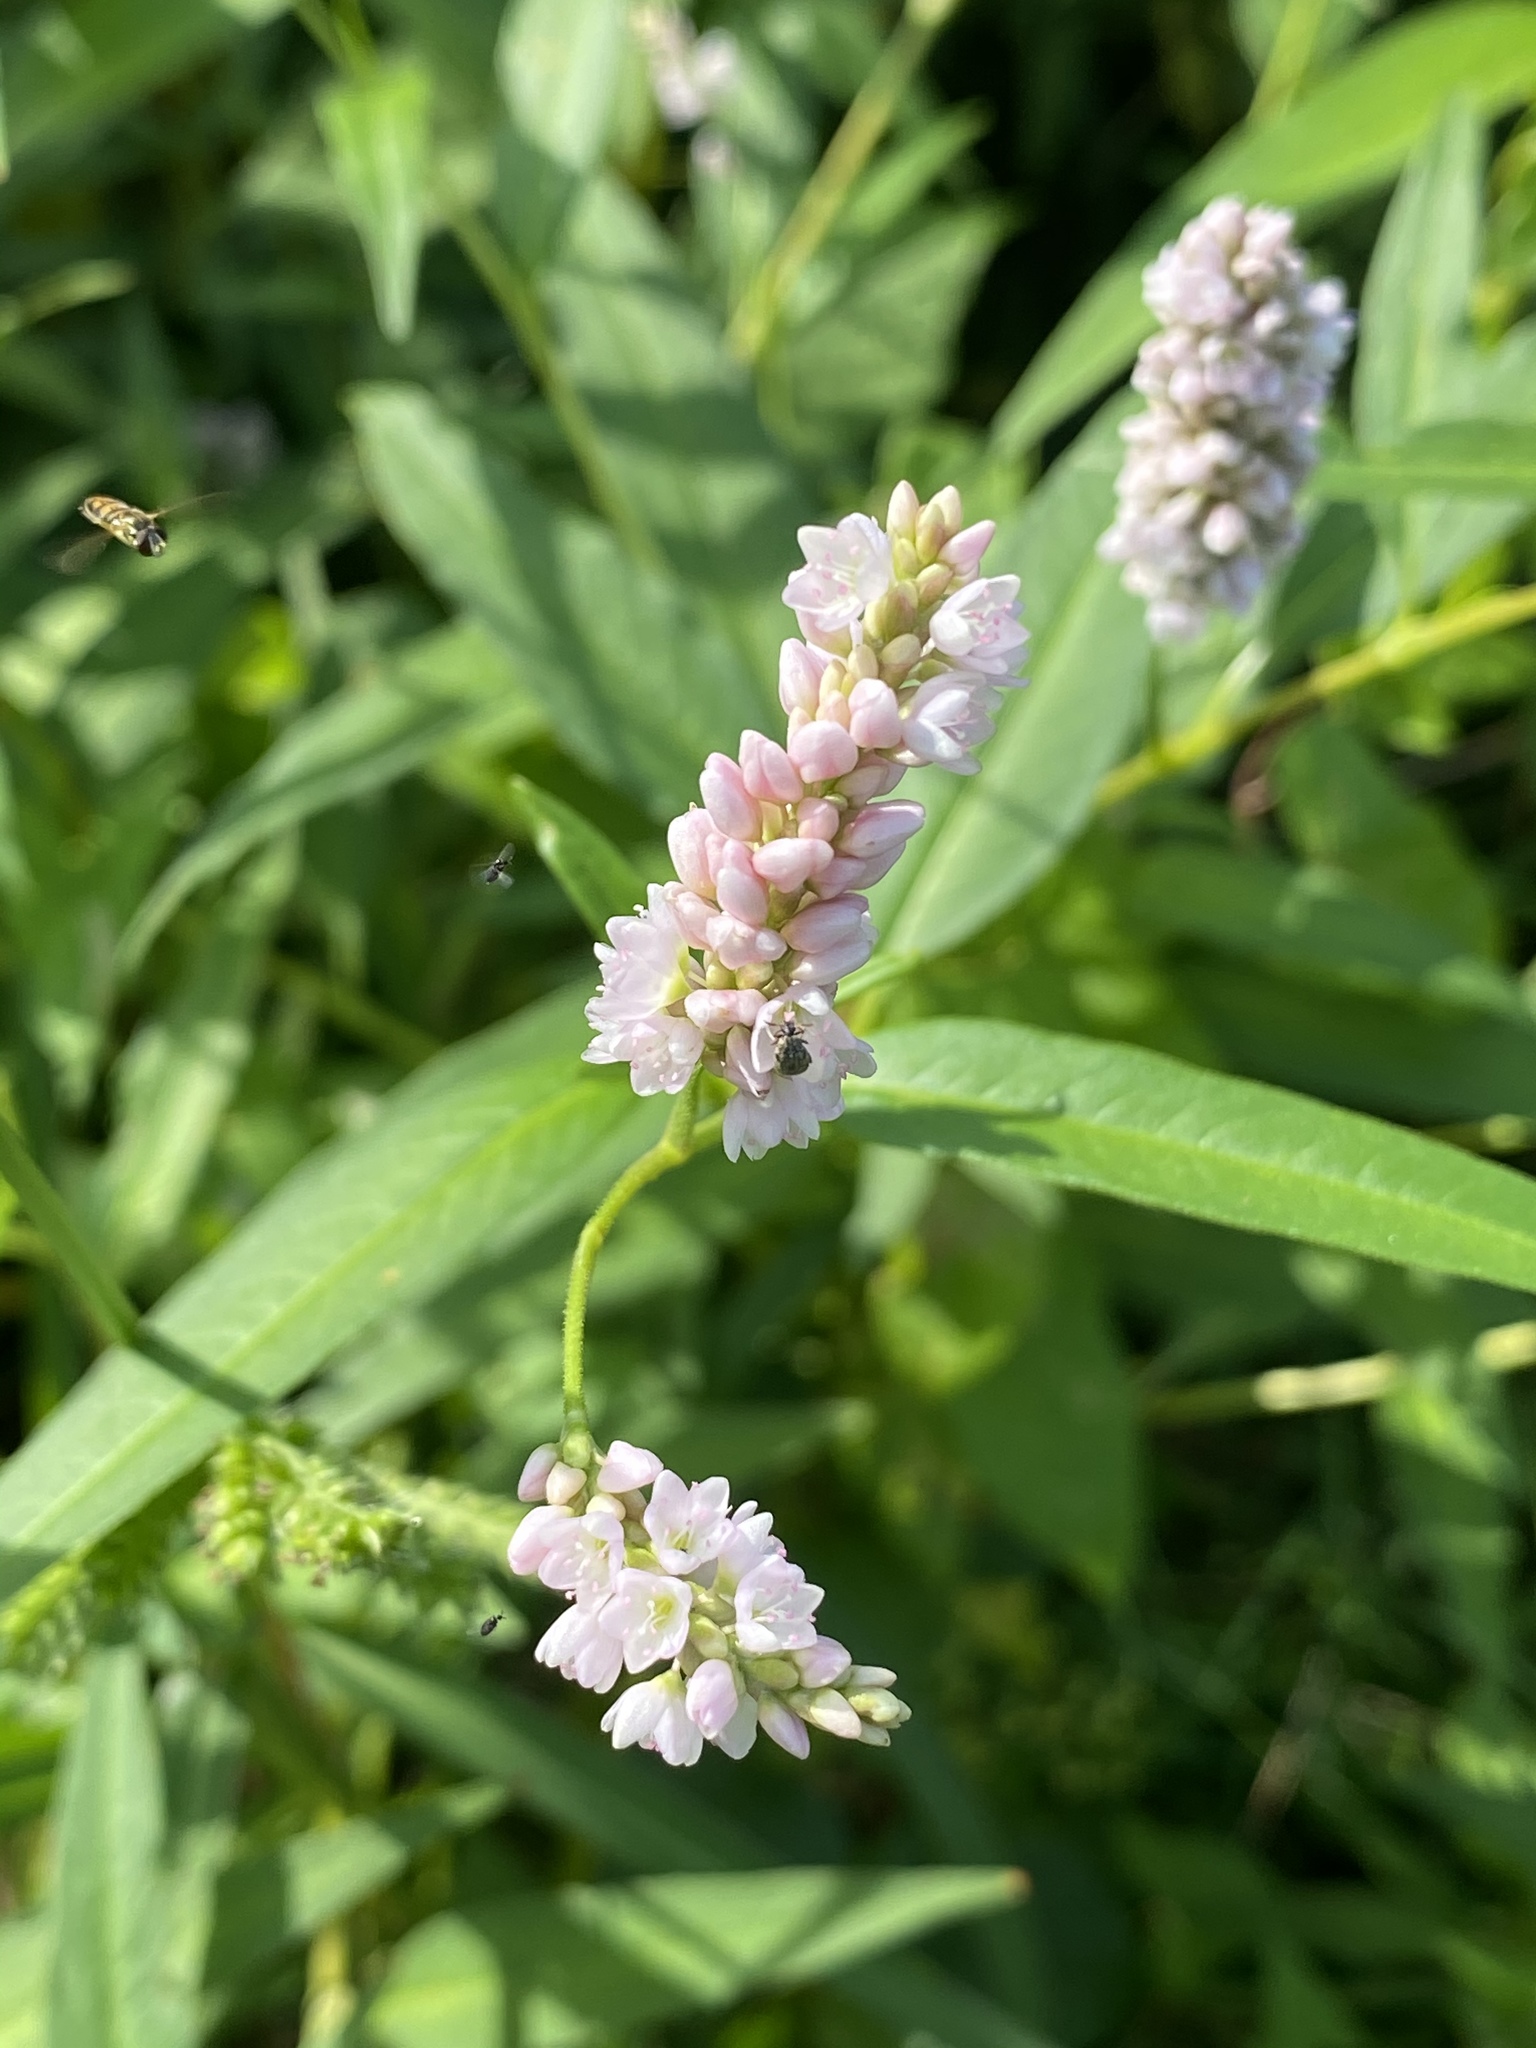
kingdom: Plantae
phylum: Tracheophyta
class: Magnoliopsida
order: Caryophyllales
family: Polygonaceae
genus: Persicaria
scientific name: Persicaria pensylvanica
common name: Pinkweed
